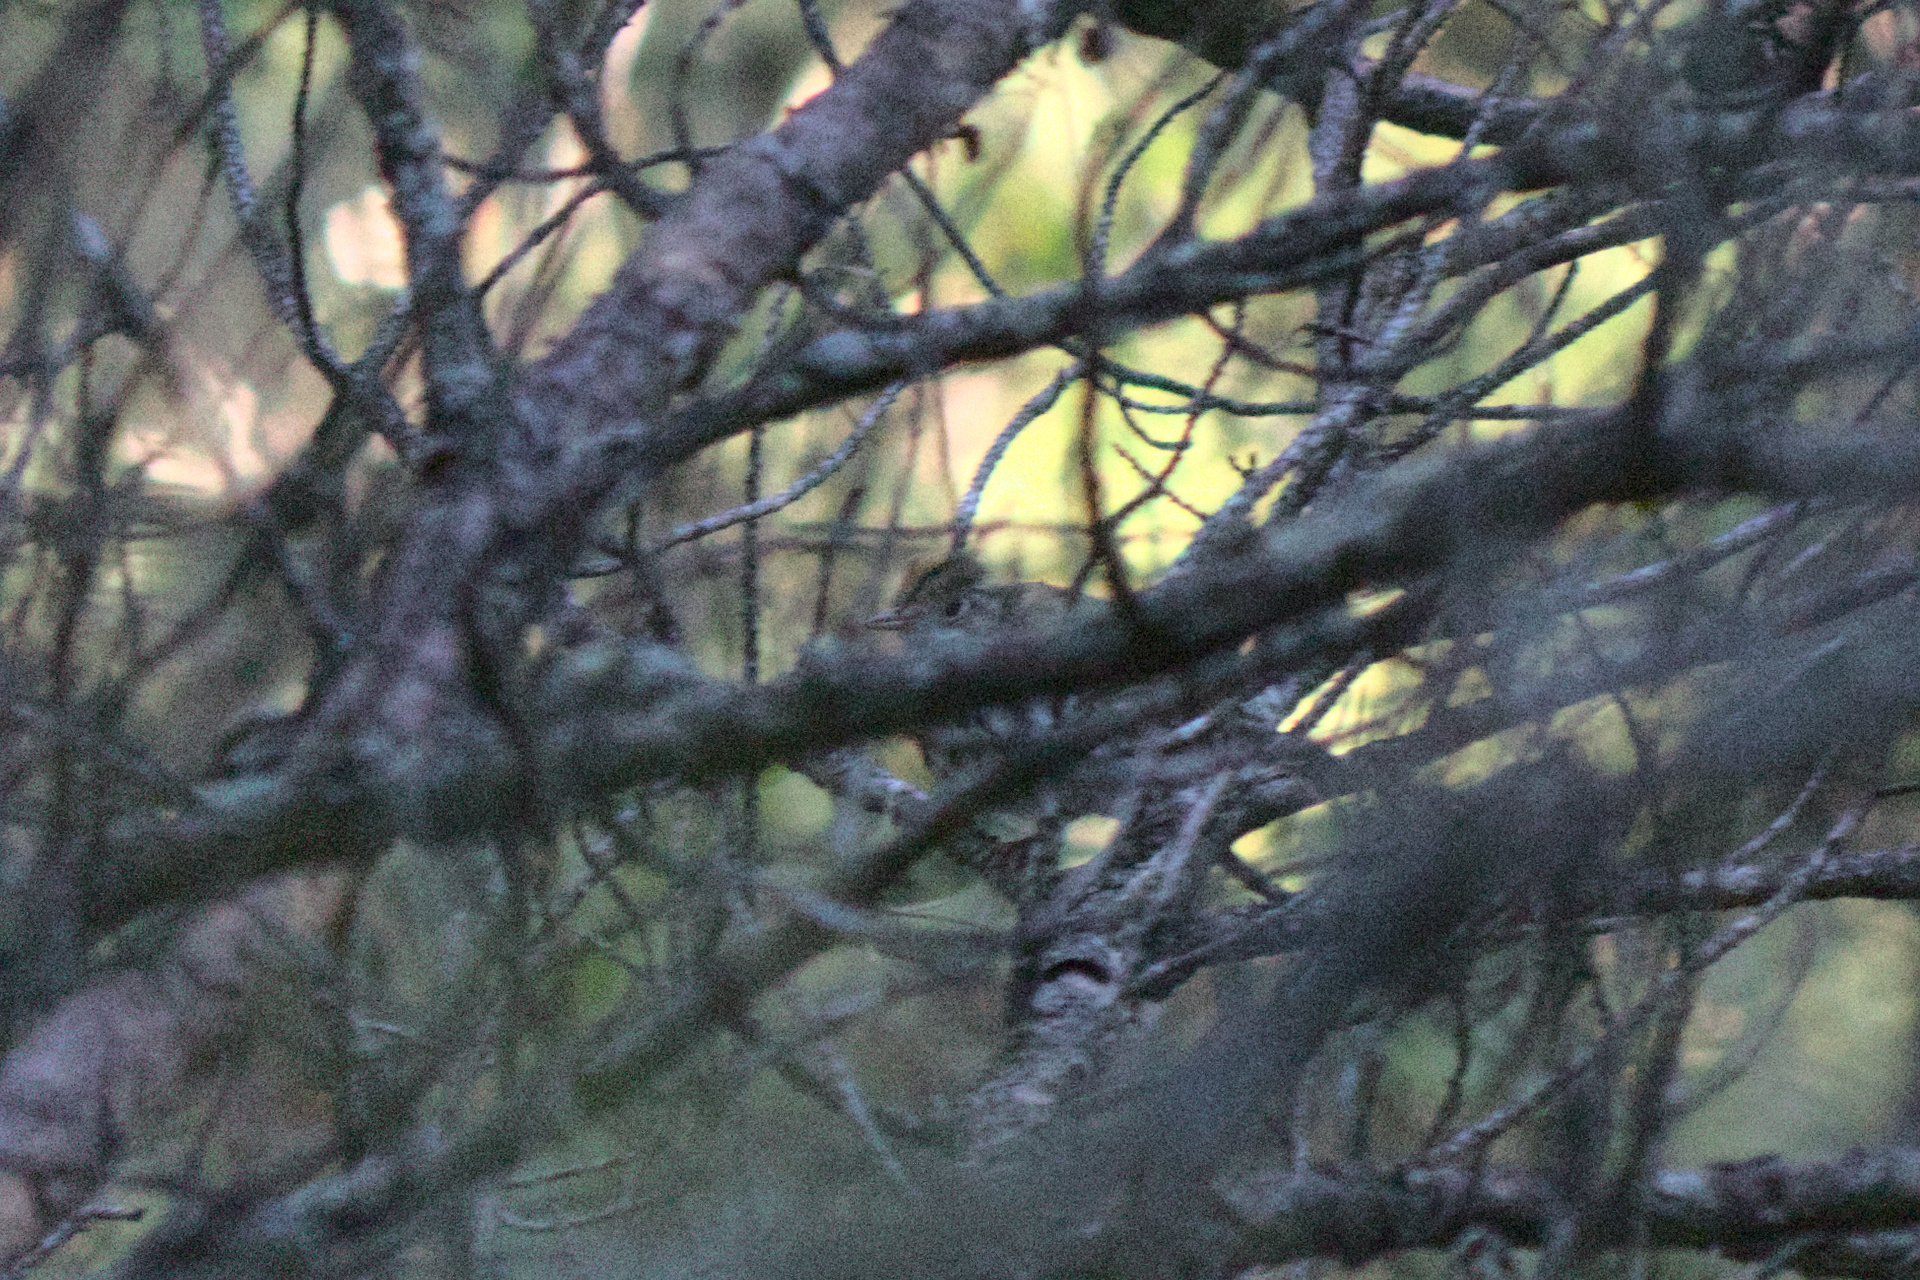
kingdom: Animalia
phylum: Chordata
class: Aves
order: Passeriformes
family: Parulidae
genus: Seiurus
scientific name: Seiurus aurocapilla
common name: Ovenbird
